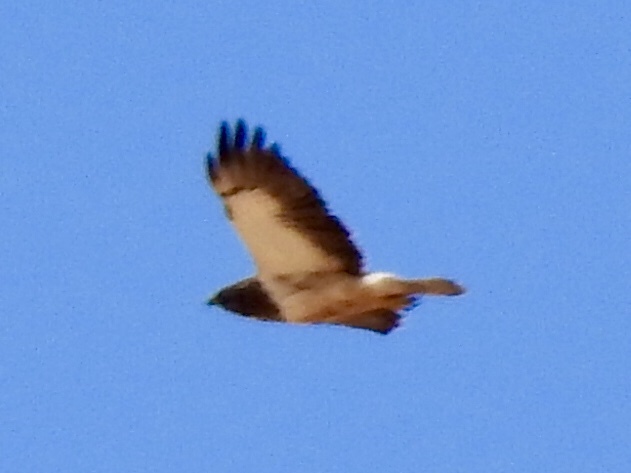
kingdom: Animalia
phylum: Chordata
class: Aves
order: Accipitriformes
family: Accipitridae
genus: Buteo
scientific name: Buteo swainsoni
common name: Swainson's hawk
